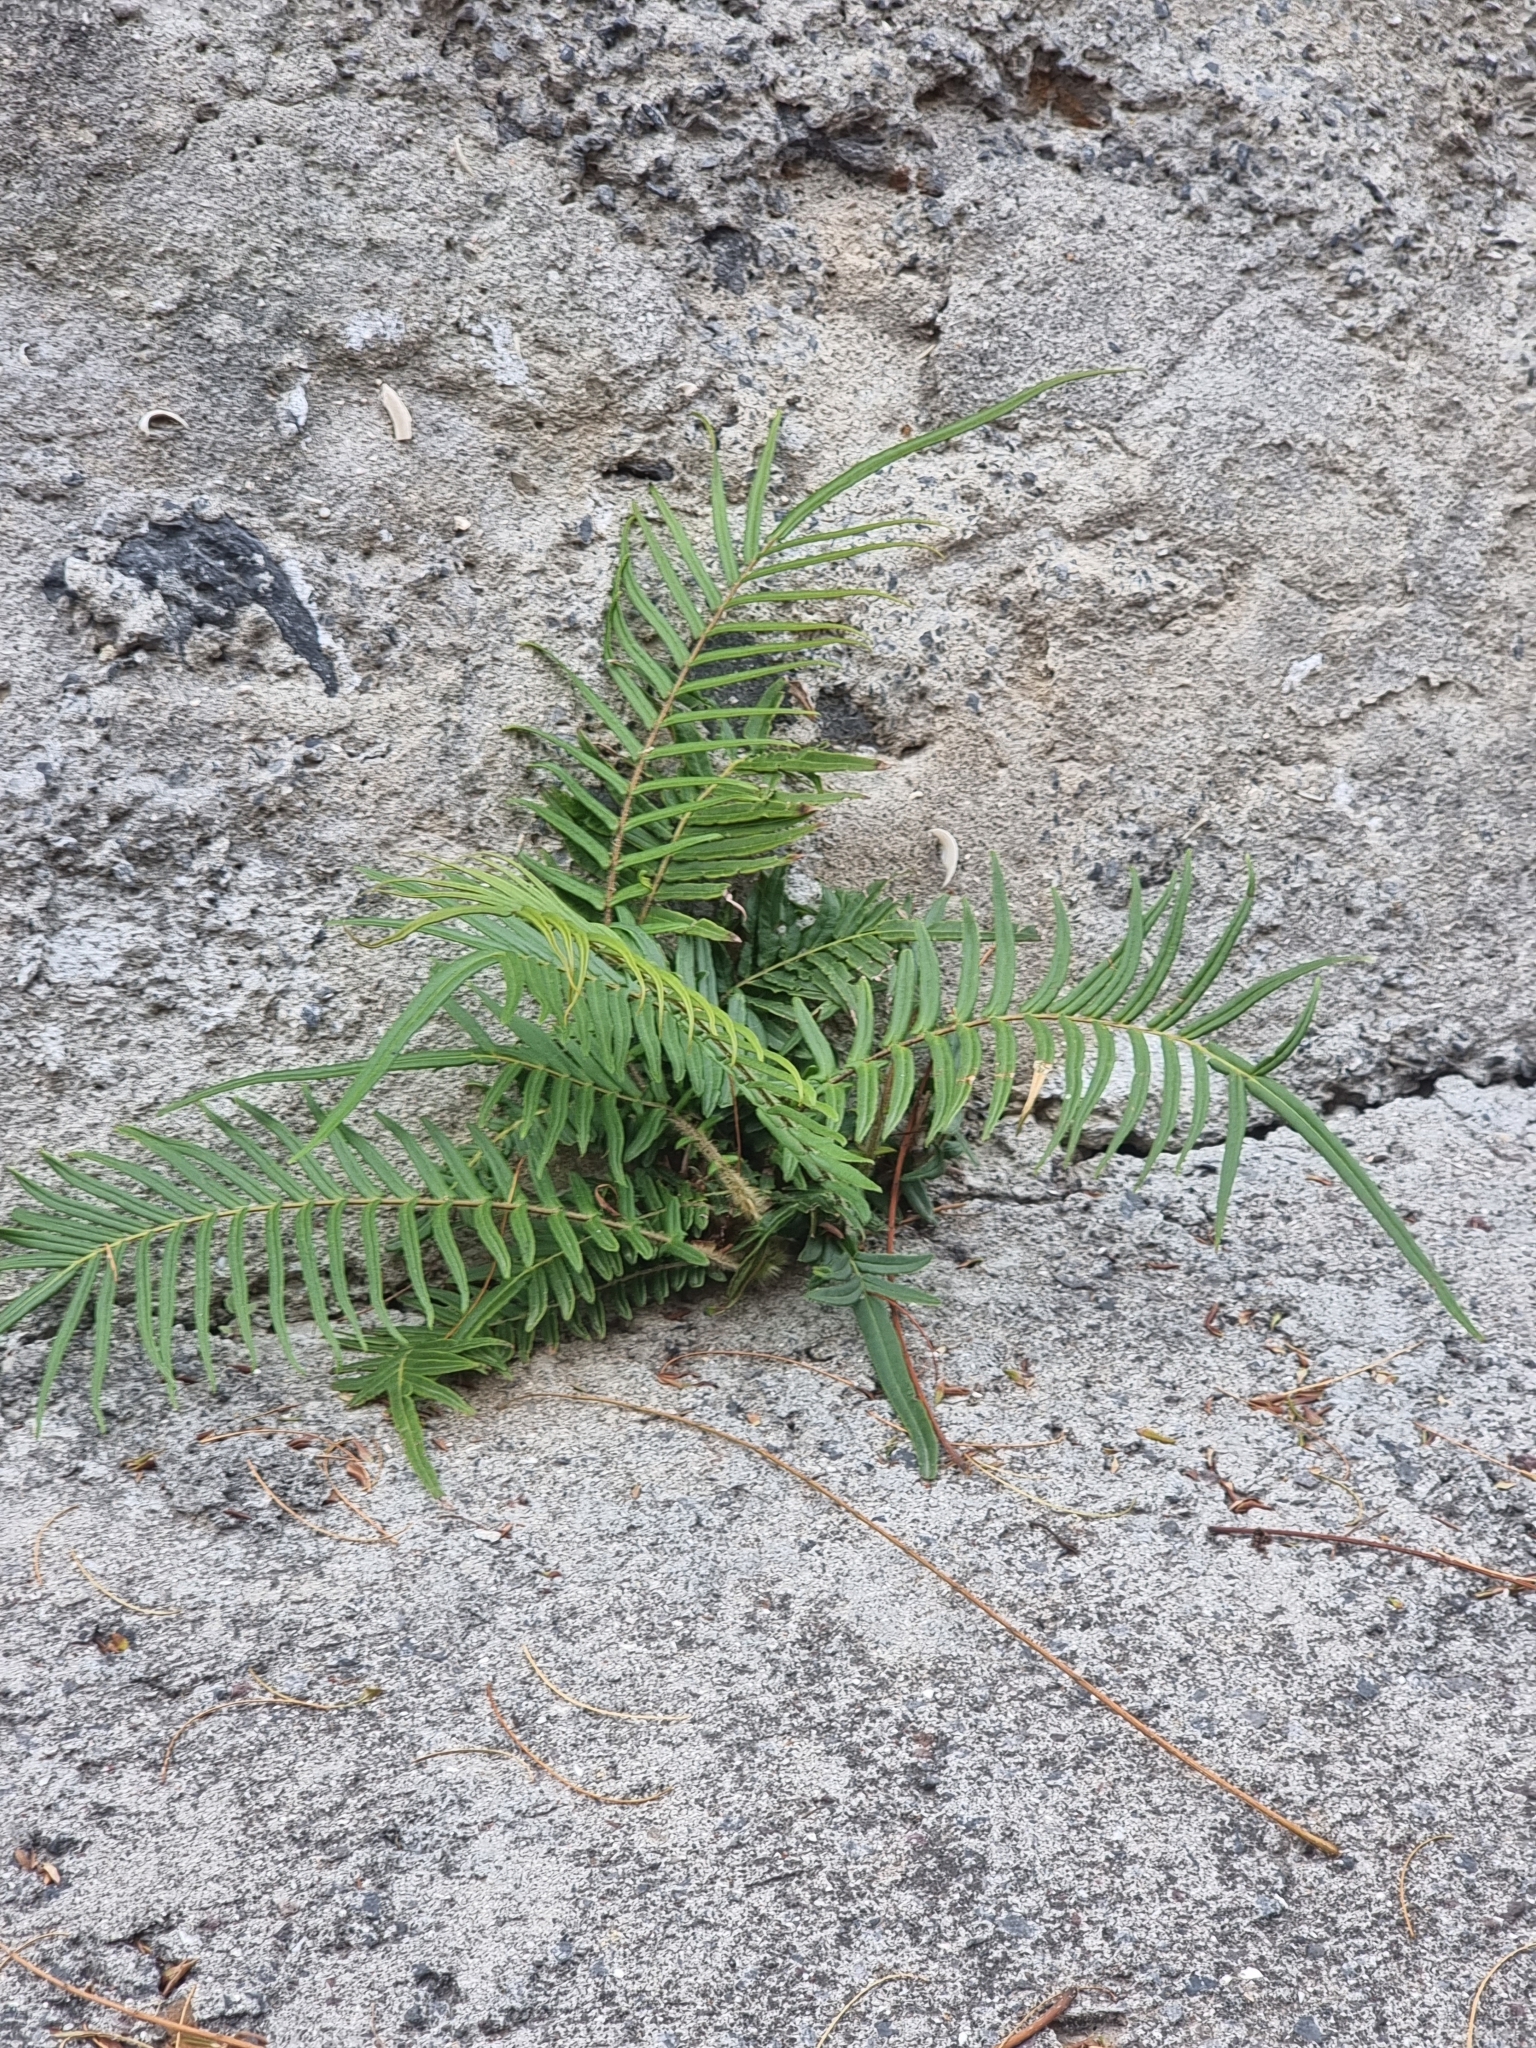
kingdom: Plantae
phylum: Tracheophyta
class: Polypodiopsida
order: Polypodiales
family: Pteridaceae
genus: Pteris
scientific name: Pteris vittata
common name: Ladder brake
